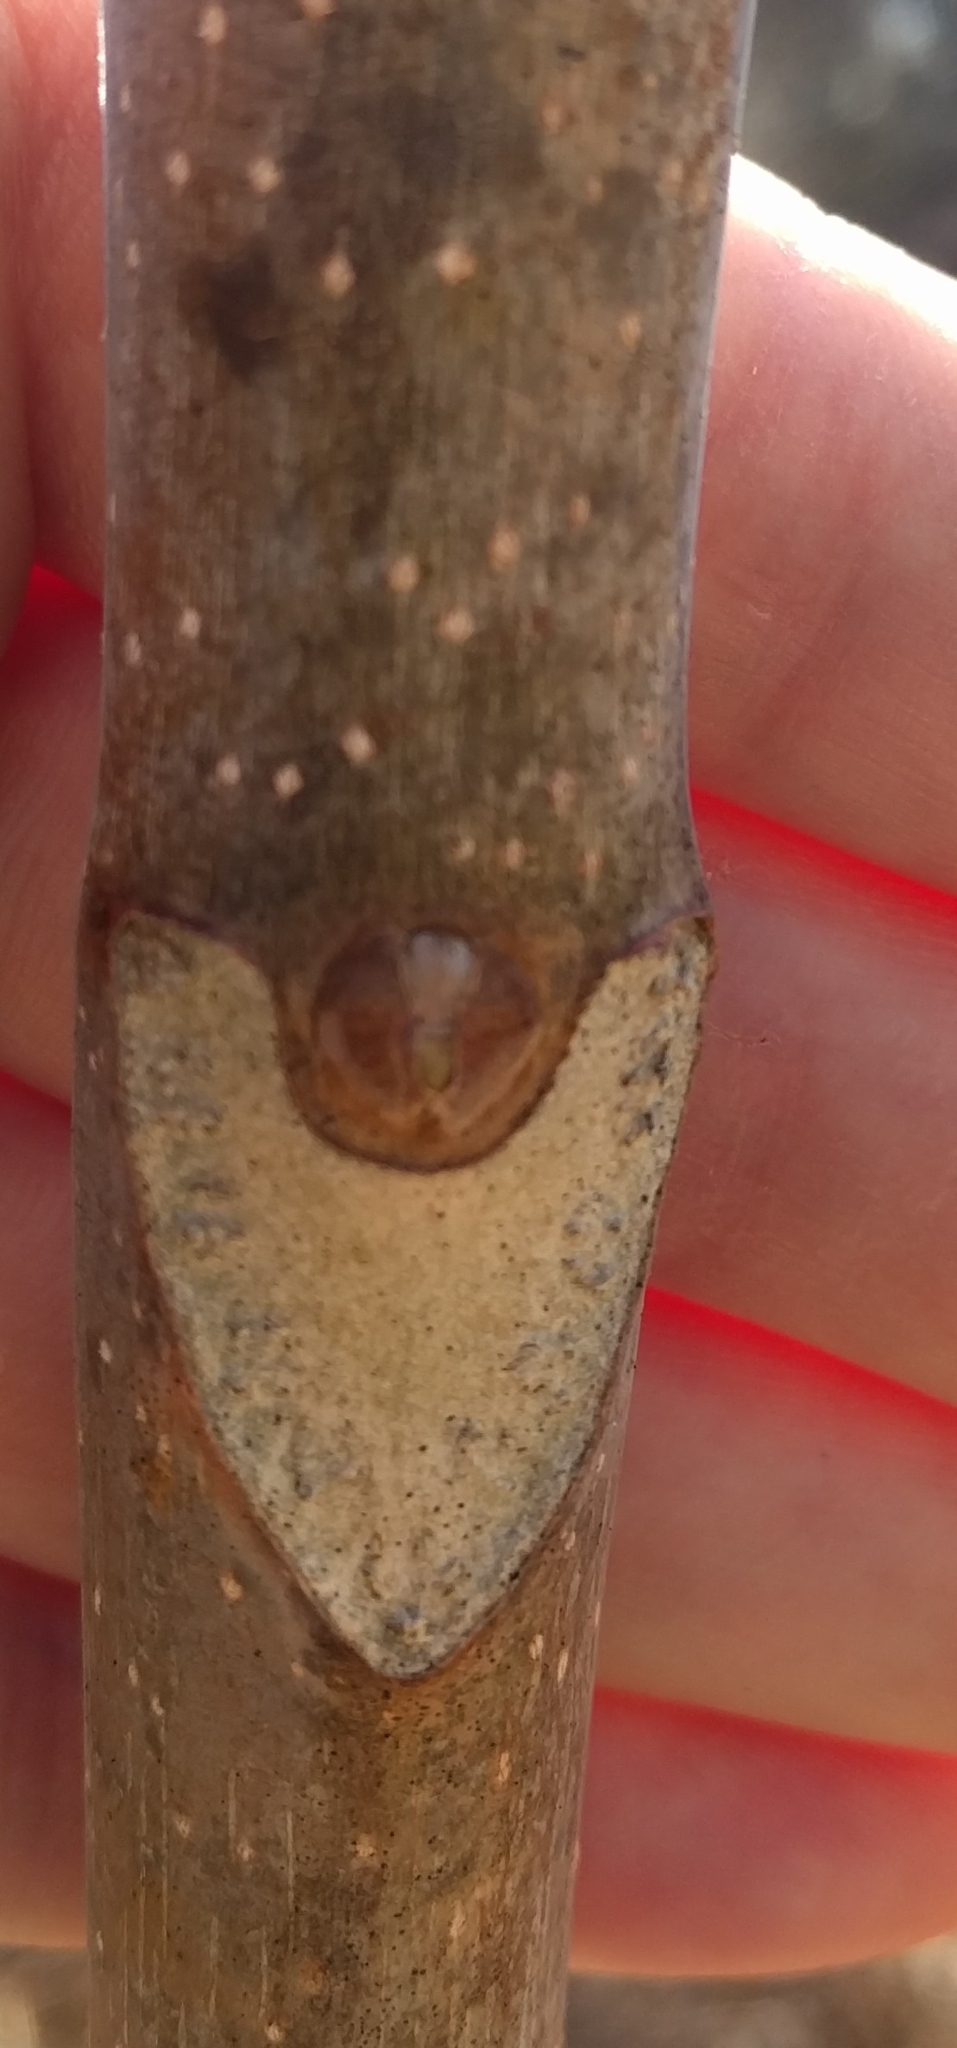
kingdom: Plantae
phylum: Tracheophyta
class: Magnoliopsida
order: Sapindales
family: Simaroubaceae
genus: Ailanthus
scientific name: Ailanthus altissima
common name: Tree-of-heaven
